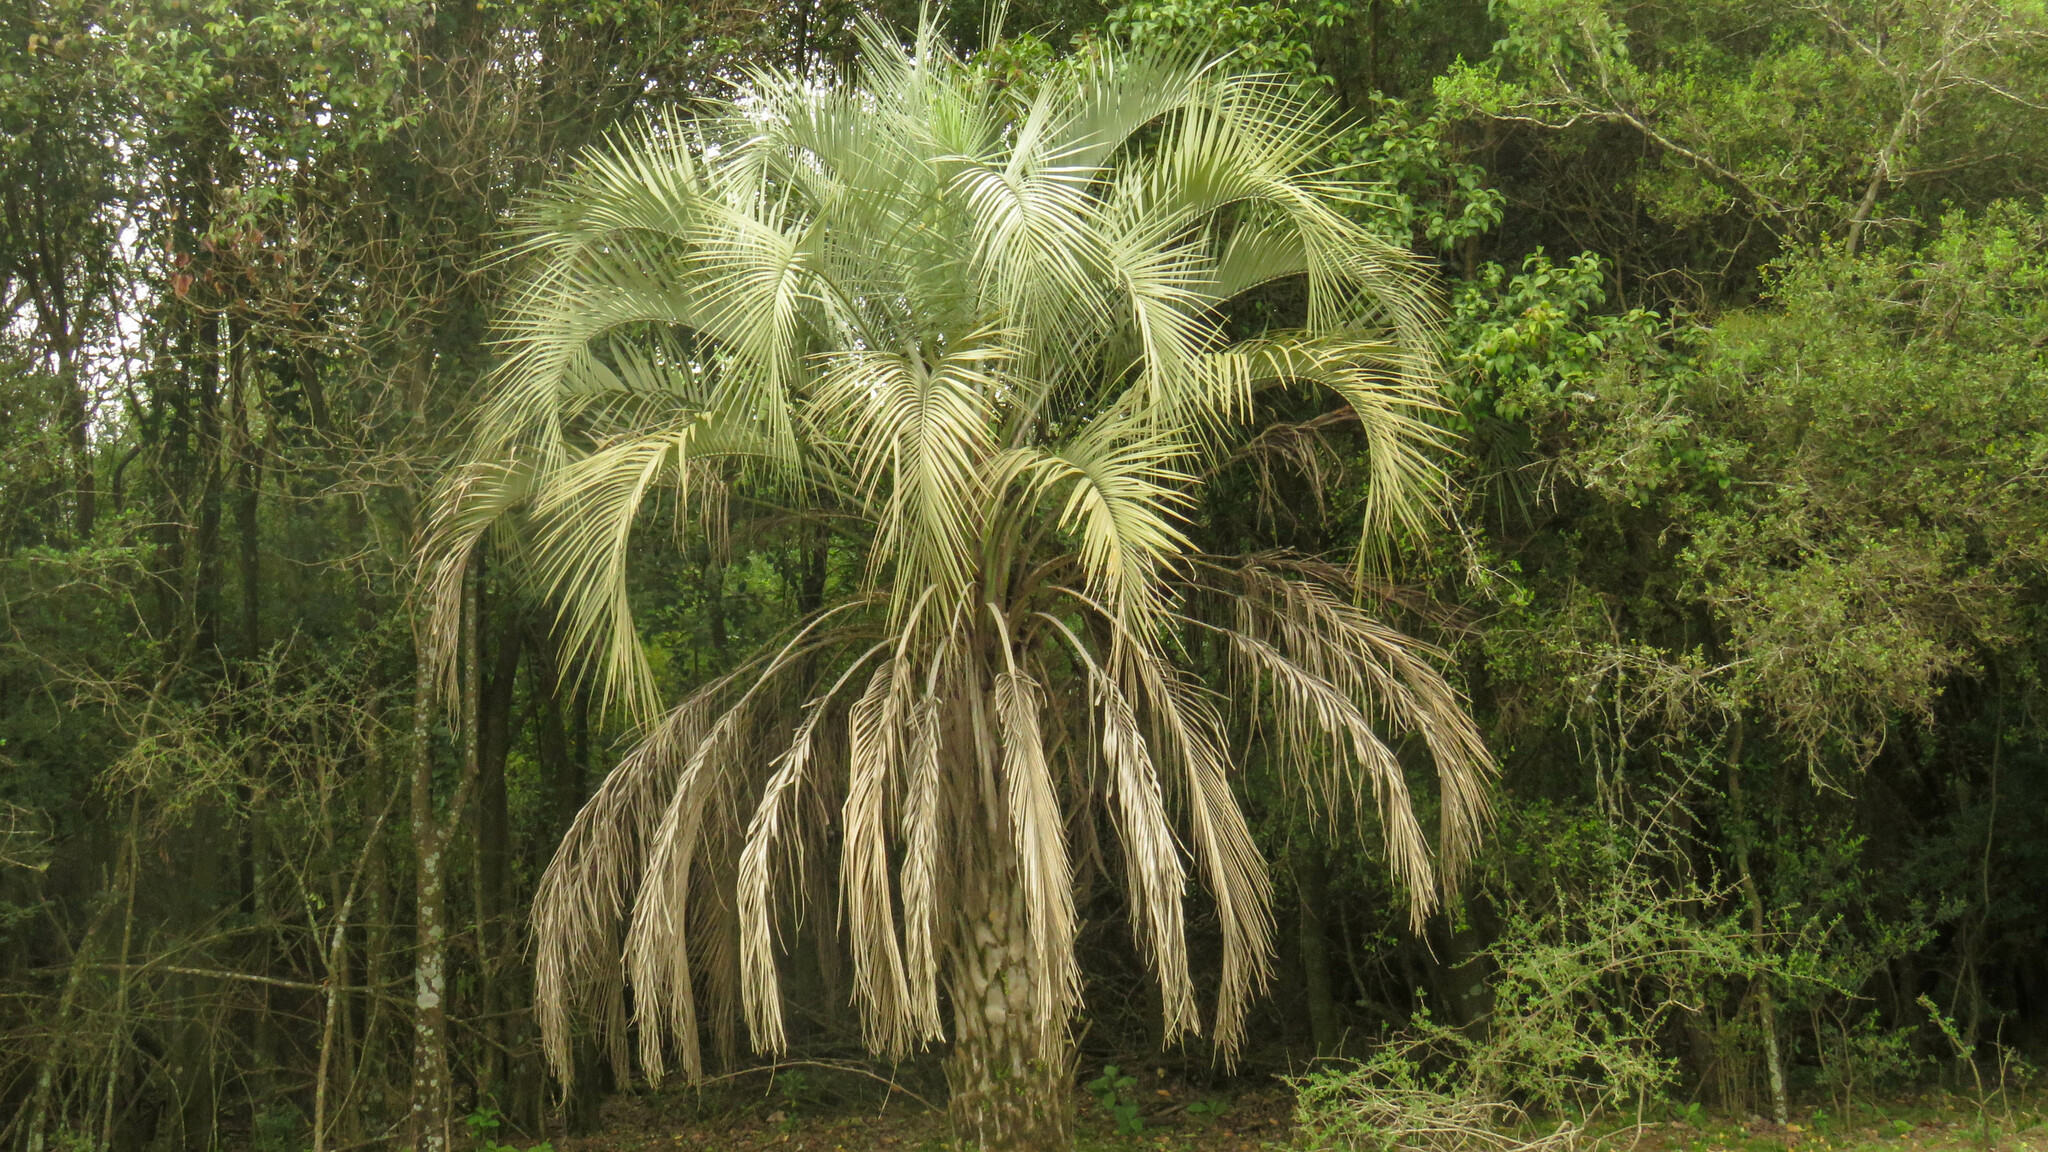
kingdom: Plantae
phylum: Tracheophyta
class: Liliopsida
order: Arecales
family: Arecaceae
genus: Butia
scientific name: Butia yatay
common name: Yatay palm
